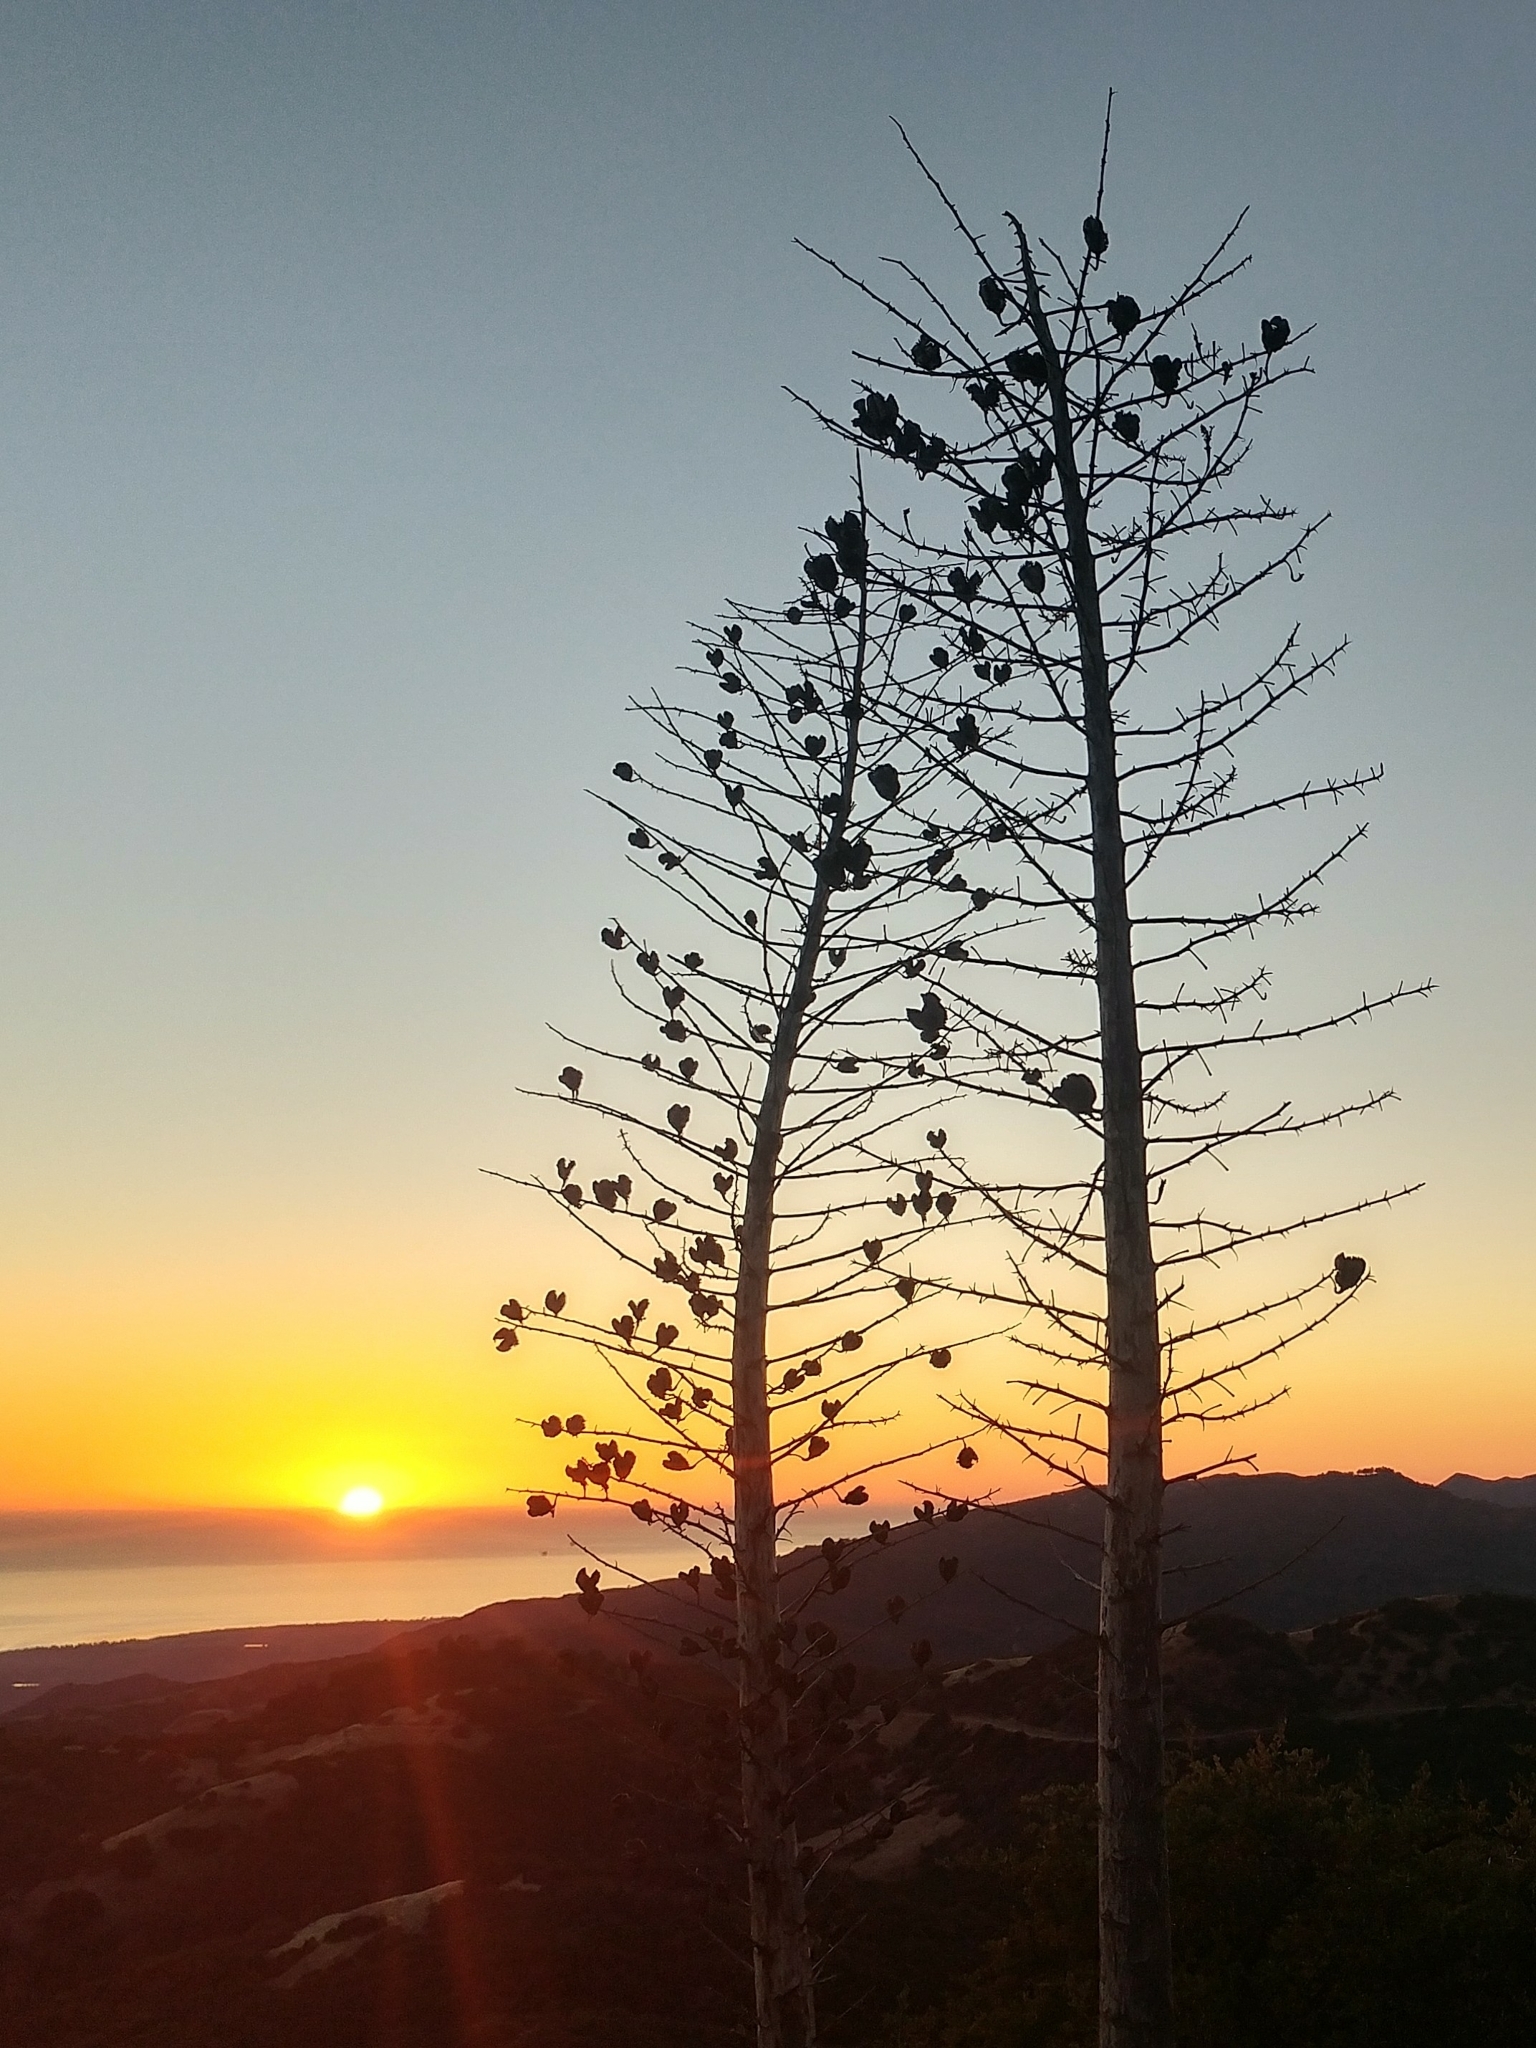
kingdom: Plantae
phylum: Tracheophyta
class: Liliopsida
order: Asparagales
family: Asparagaceae
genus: Hesperoyucca
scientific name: Hesperoyucca whipplei
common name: Our lord's-candle
